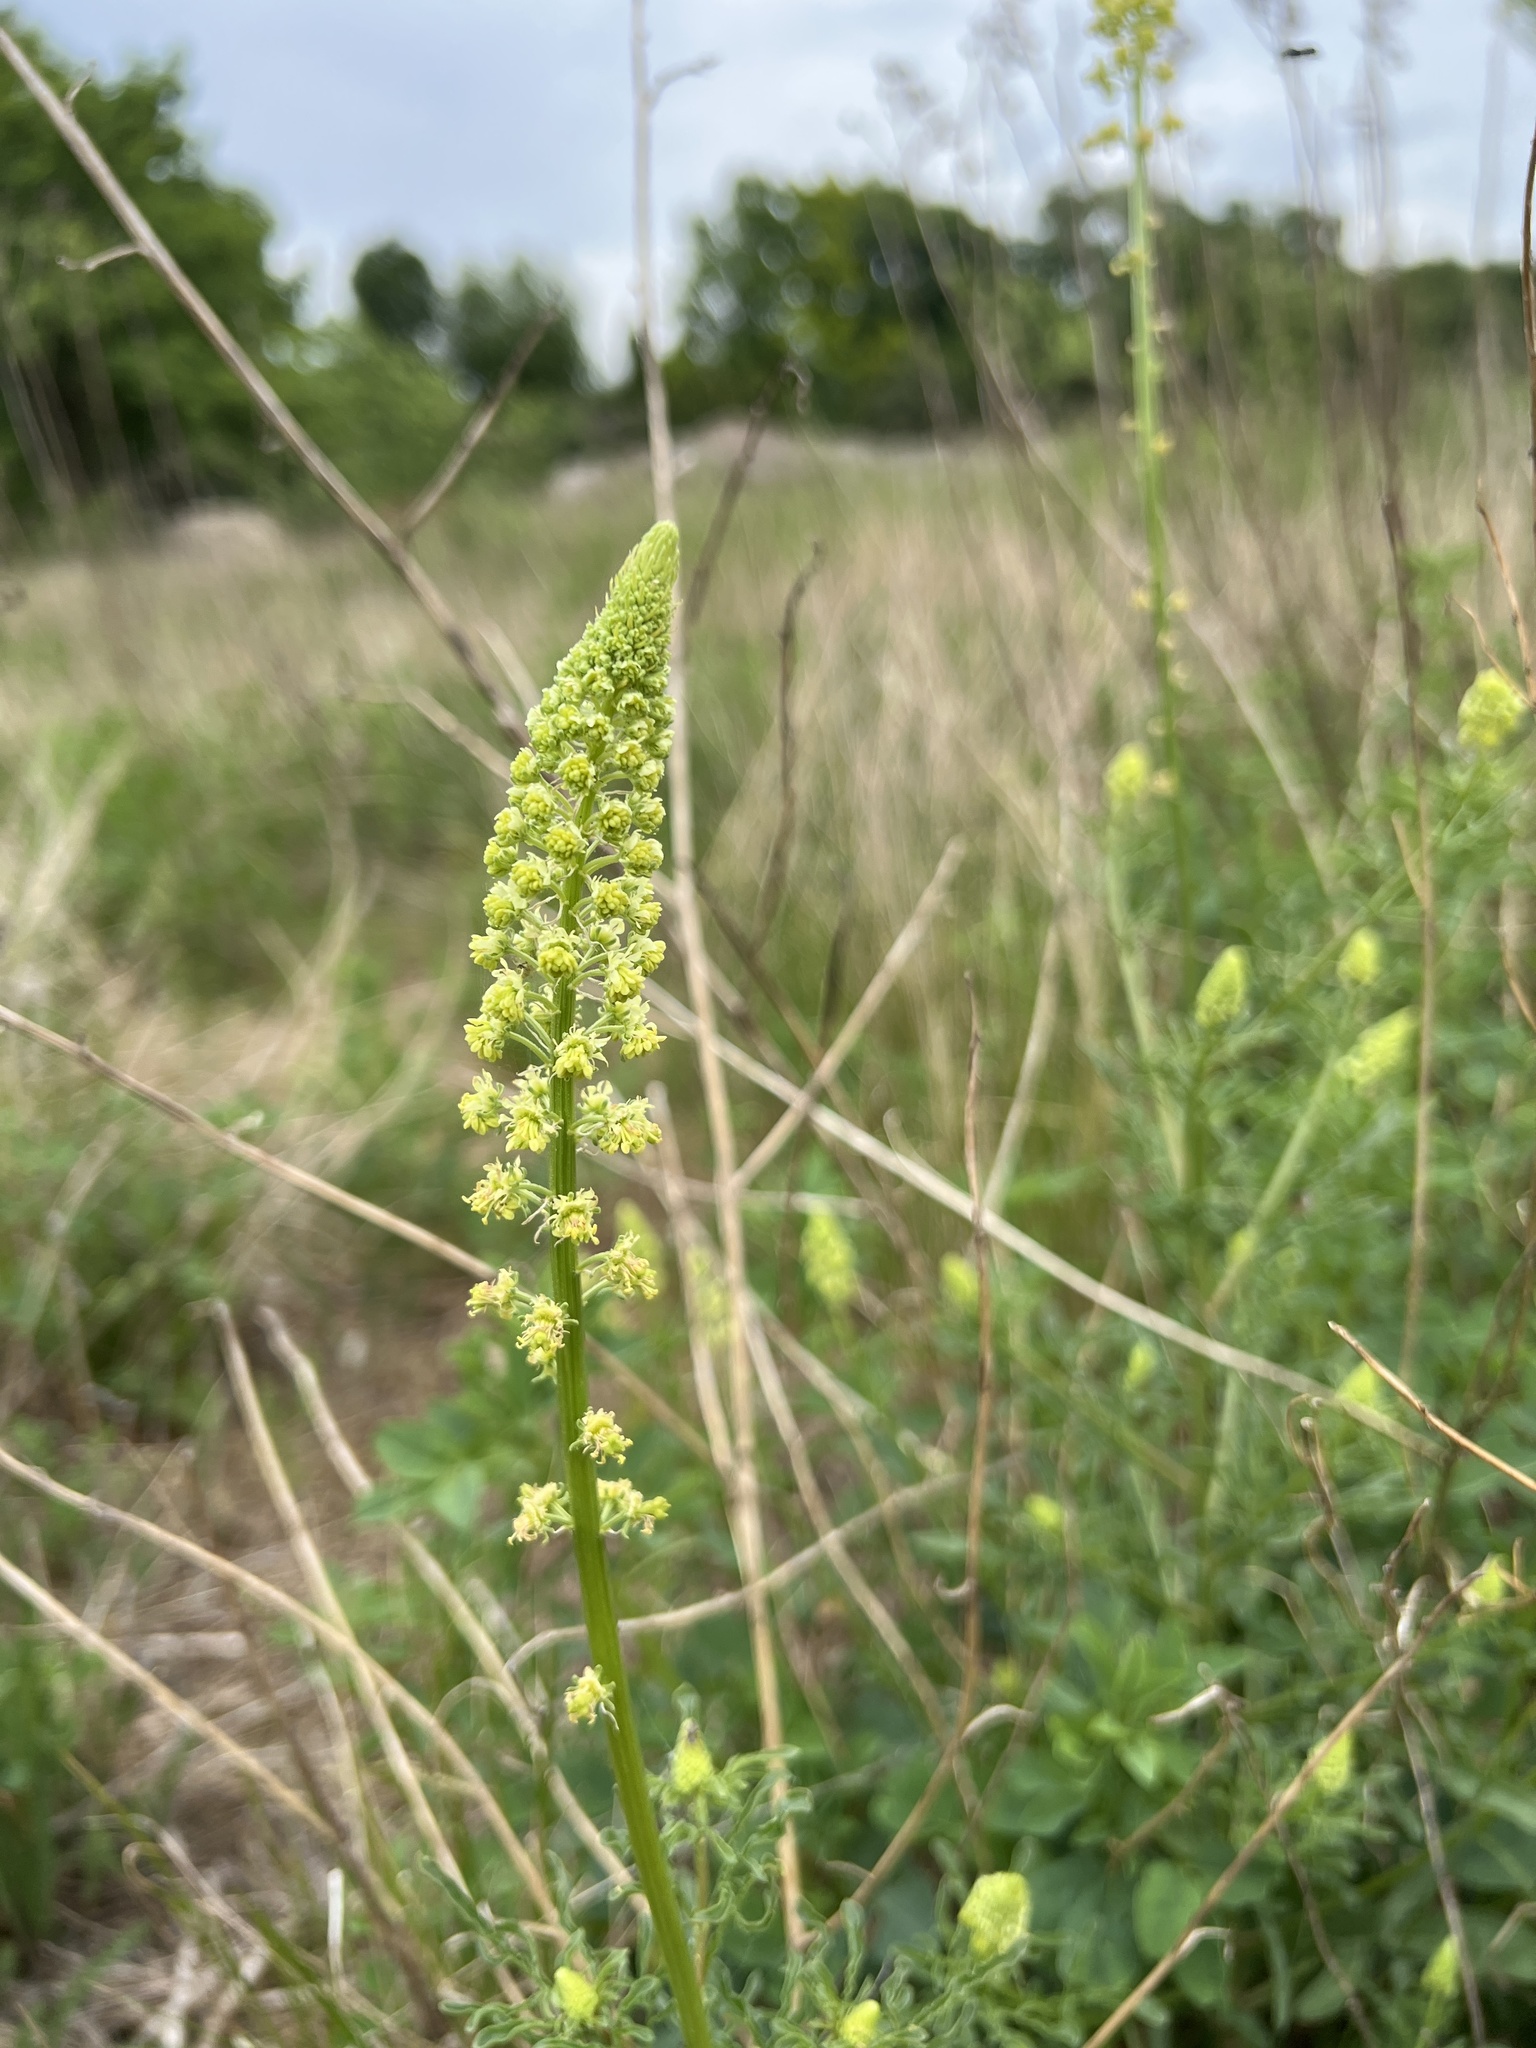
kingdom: Plantae
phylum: Tracheophyta
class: Magnoliopsida
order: Brassicales
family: Resedaceae
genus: Reseda
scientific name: Reseda lutea
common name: Wild mignonette
